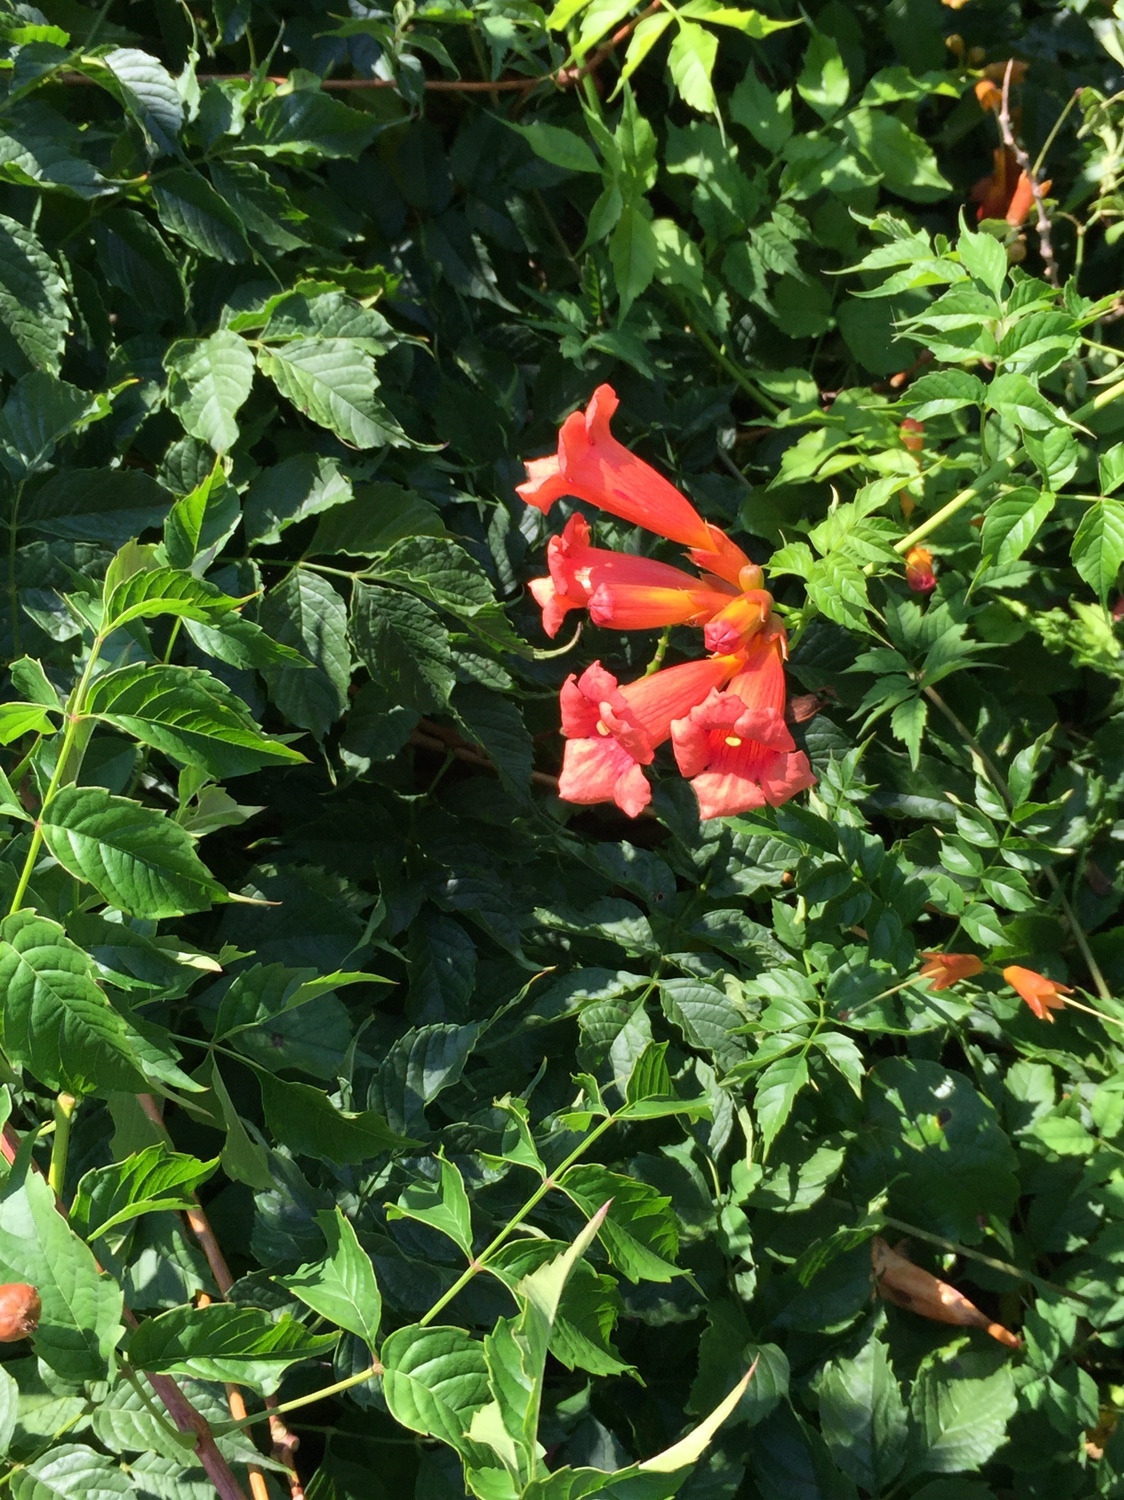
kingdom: Plantae
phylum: Tracheophyta
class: Magnoliopsida
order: Lamiales
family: Bignoniaceae
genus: Campsis
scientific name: Campsis radicans
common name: Trumpet-creeper
